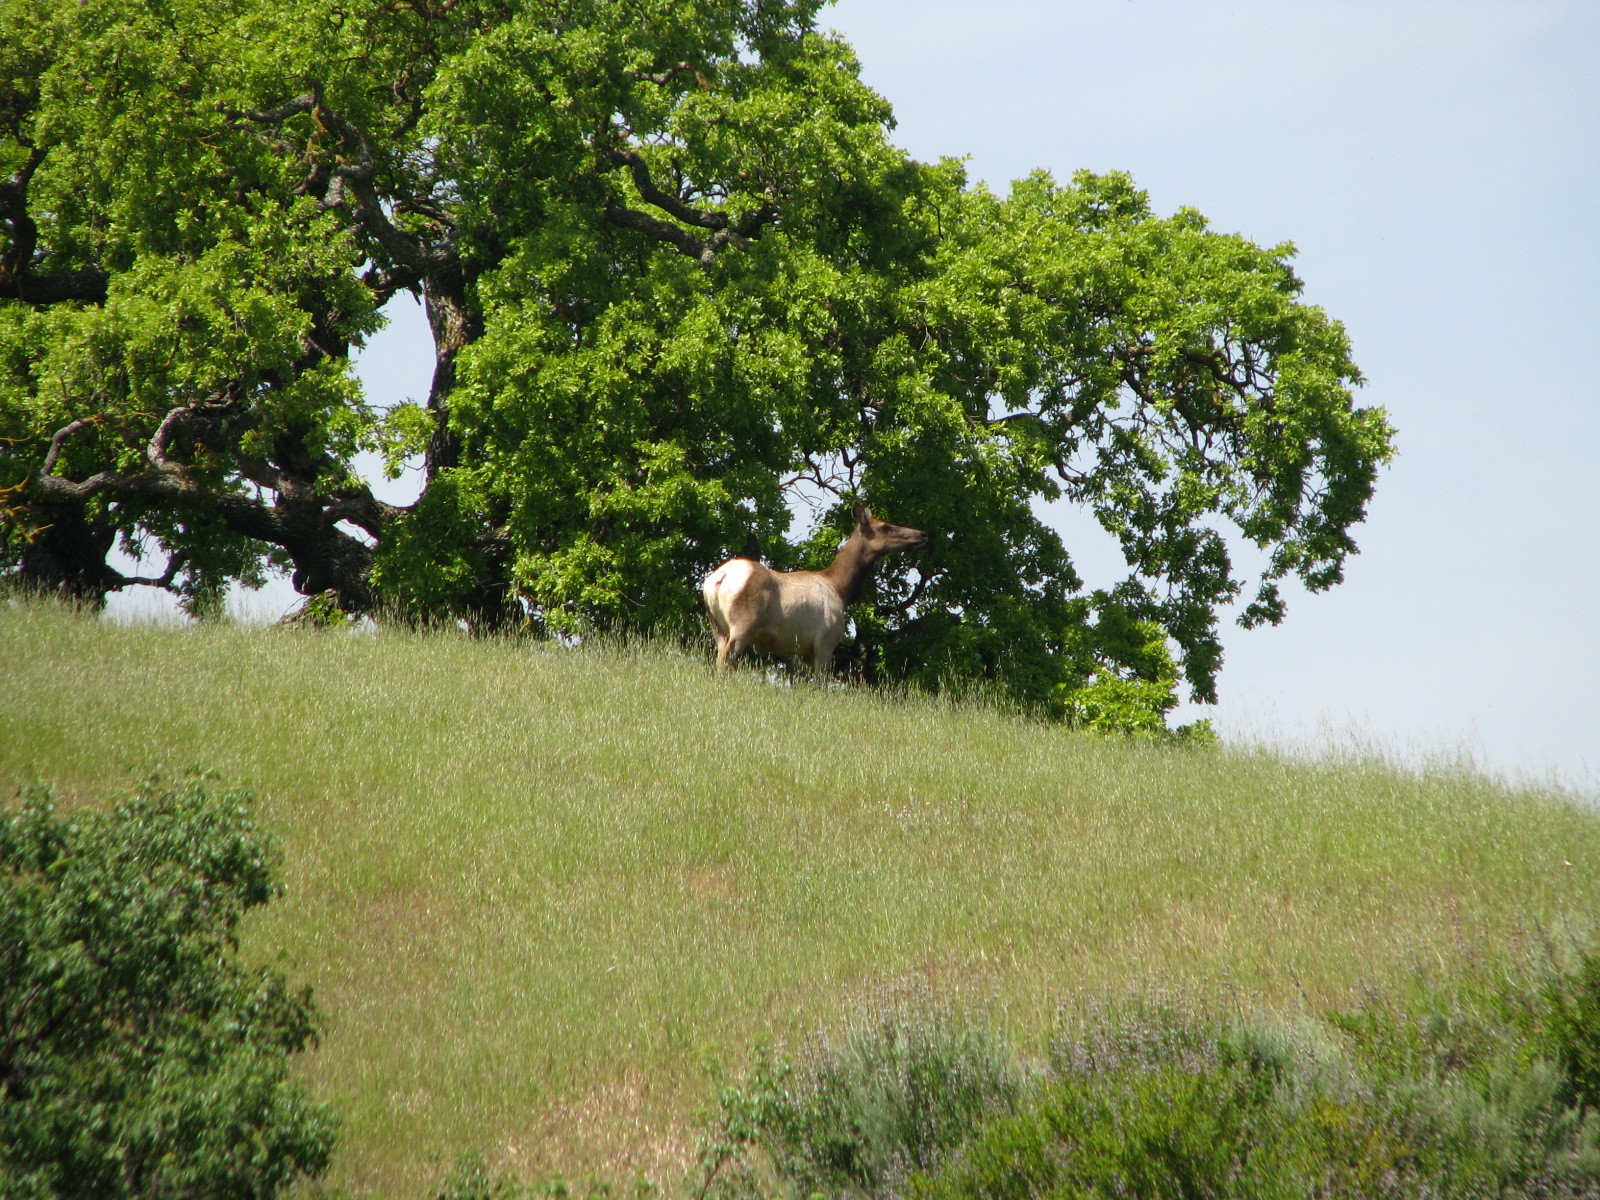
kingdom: Animalia
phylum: Chordata
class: Mammalia
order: Artiodactyla
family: Cervidae
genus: Cervus
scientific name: Cervus elaphus
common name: Red deer
